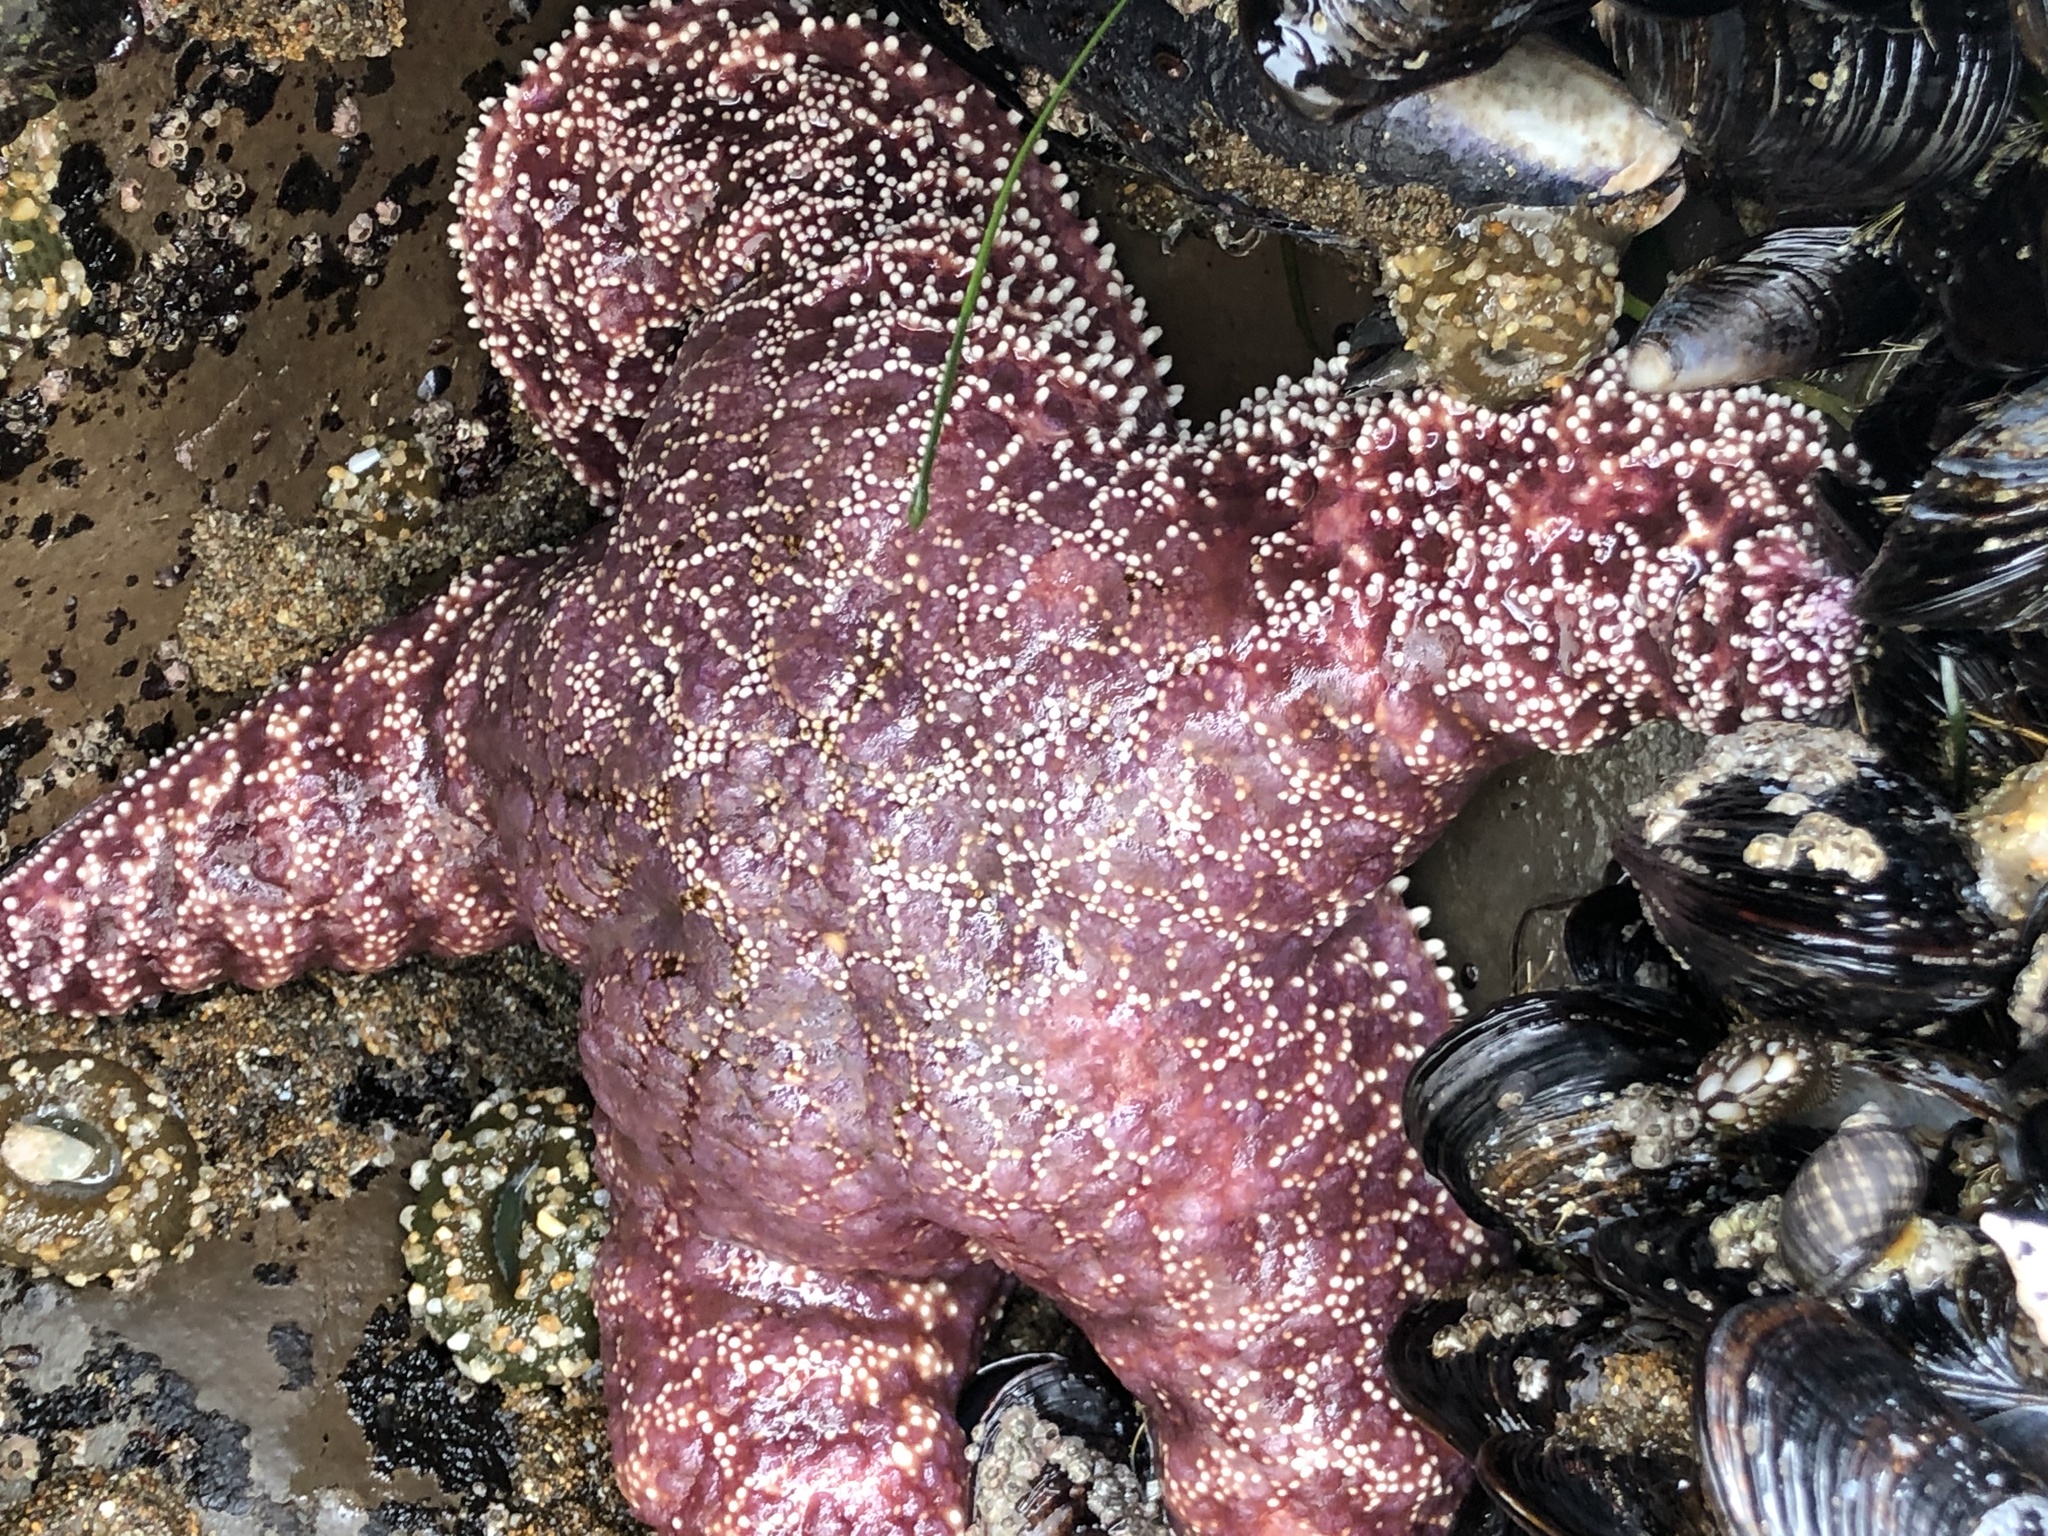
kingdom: Animalia
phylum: Echinodermata
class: Asteroidea
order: Forcipulatida
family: Asteriidae
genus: Pisaster
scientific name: Pisaster ochraceus
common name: Ochre stars
